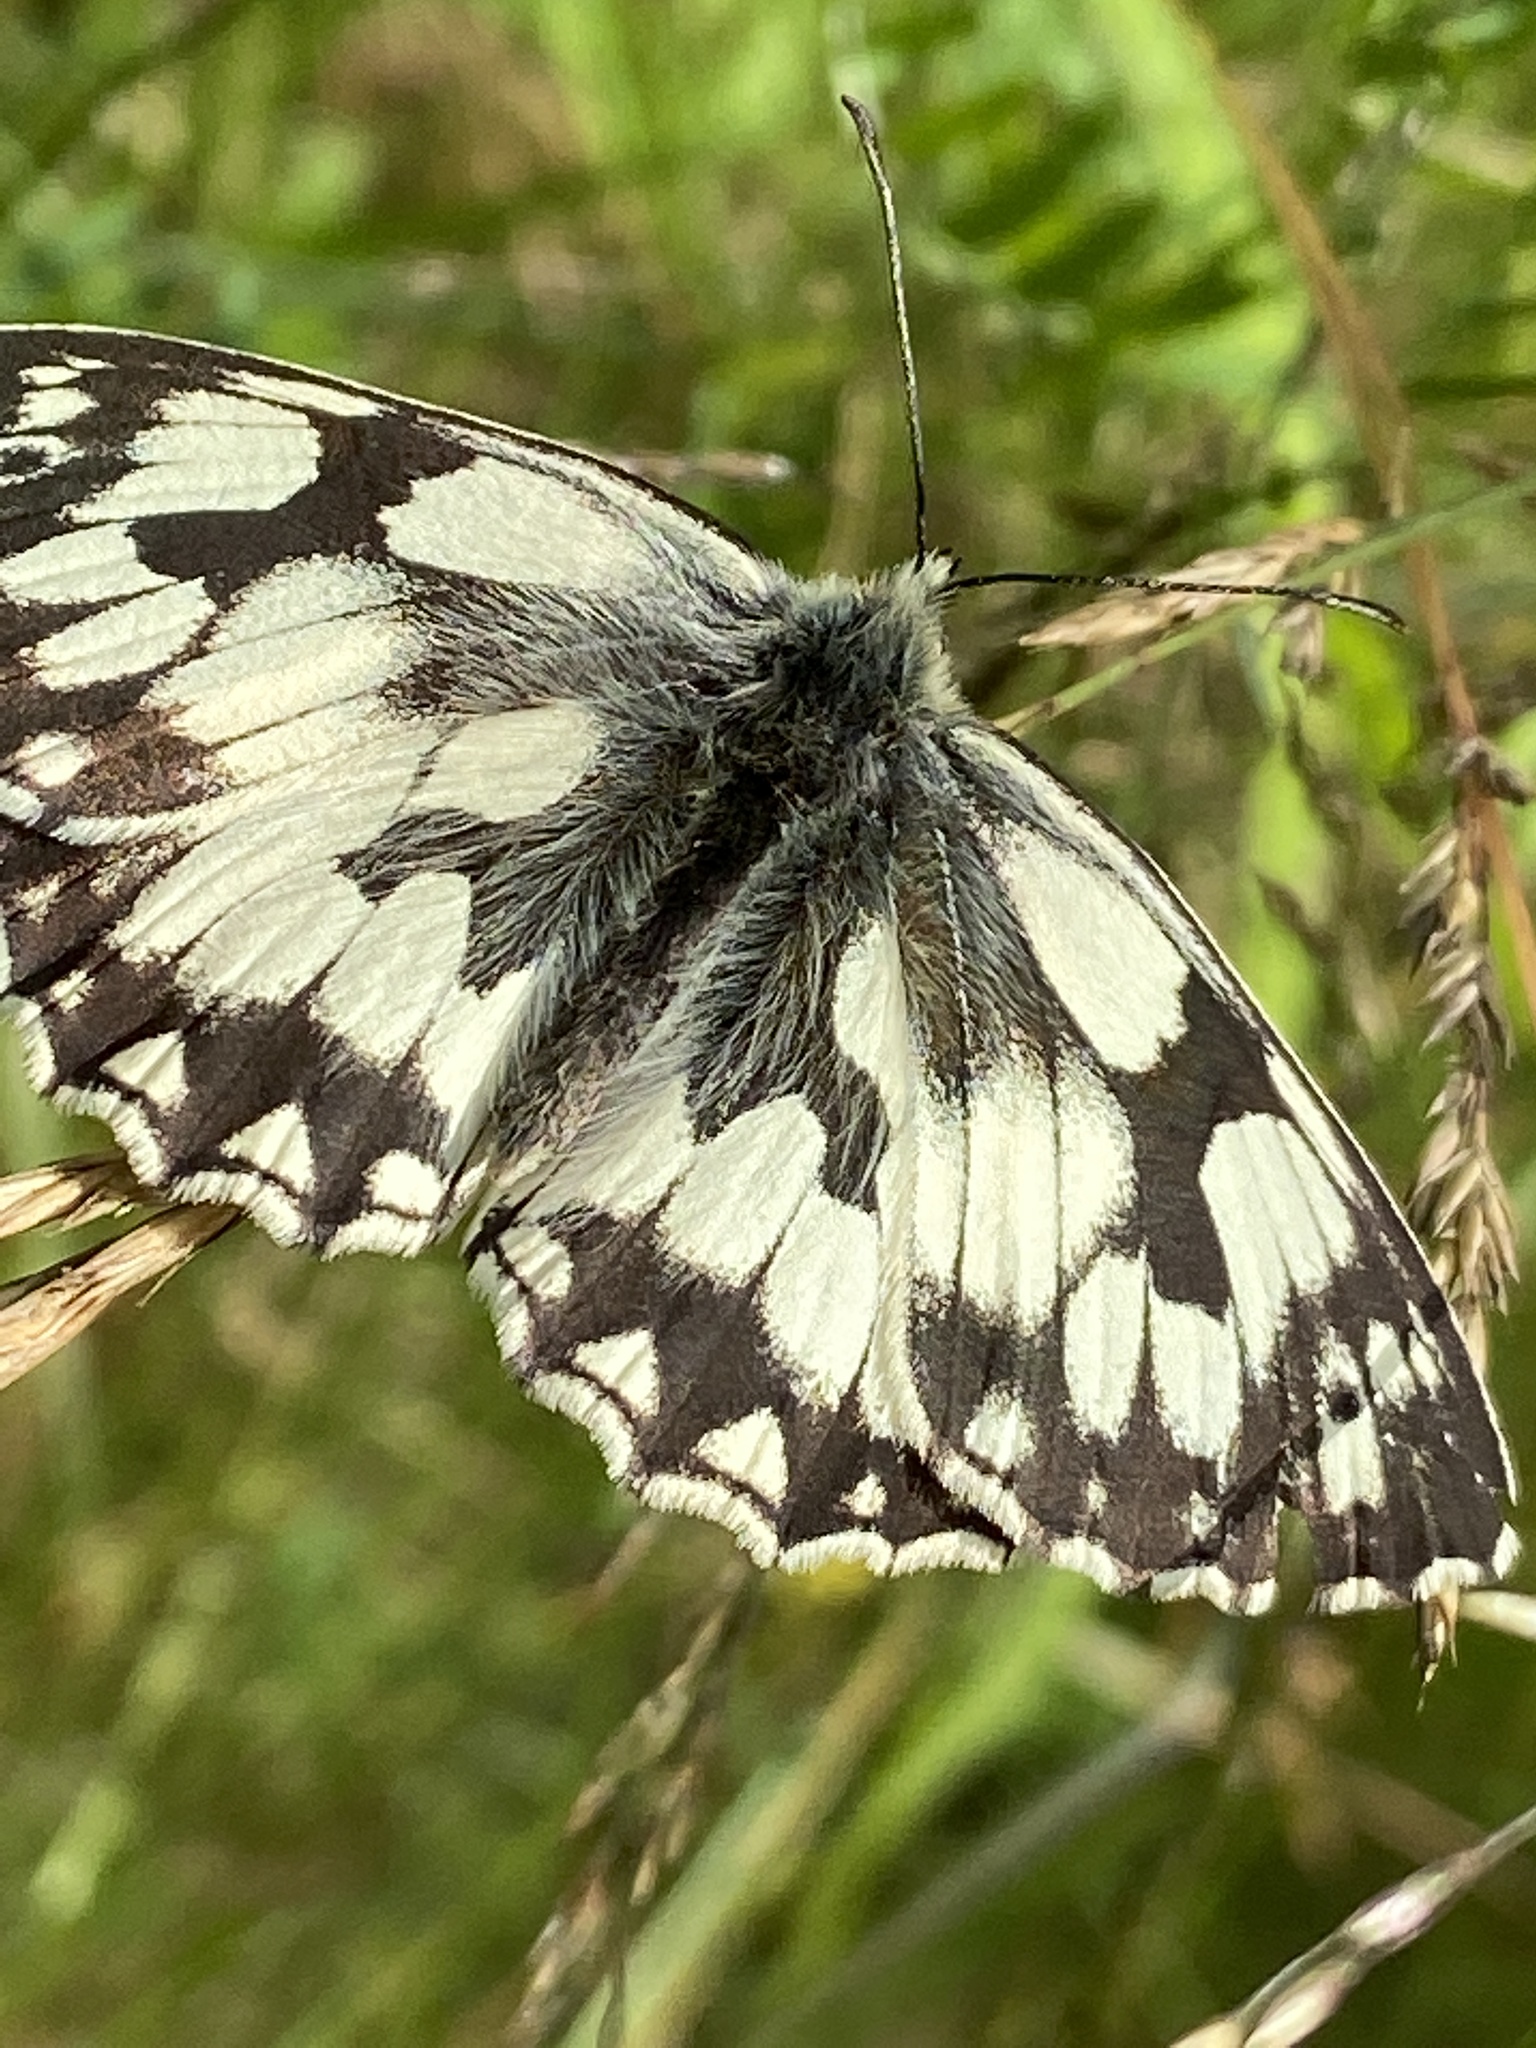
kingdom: Animalia
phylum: Arthropoda
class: Insecta
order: Lepidoptera
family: Nymphalidae
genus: Melanargia
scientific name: Melanargia galathea
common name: Marbled white
